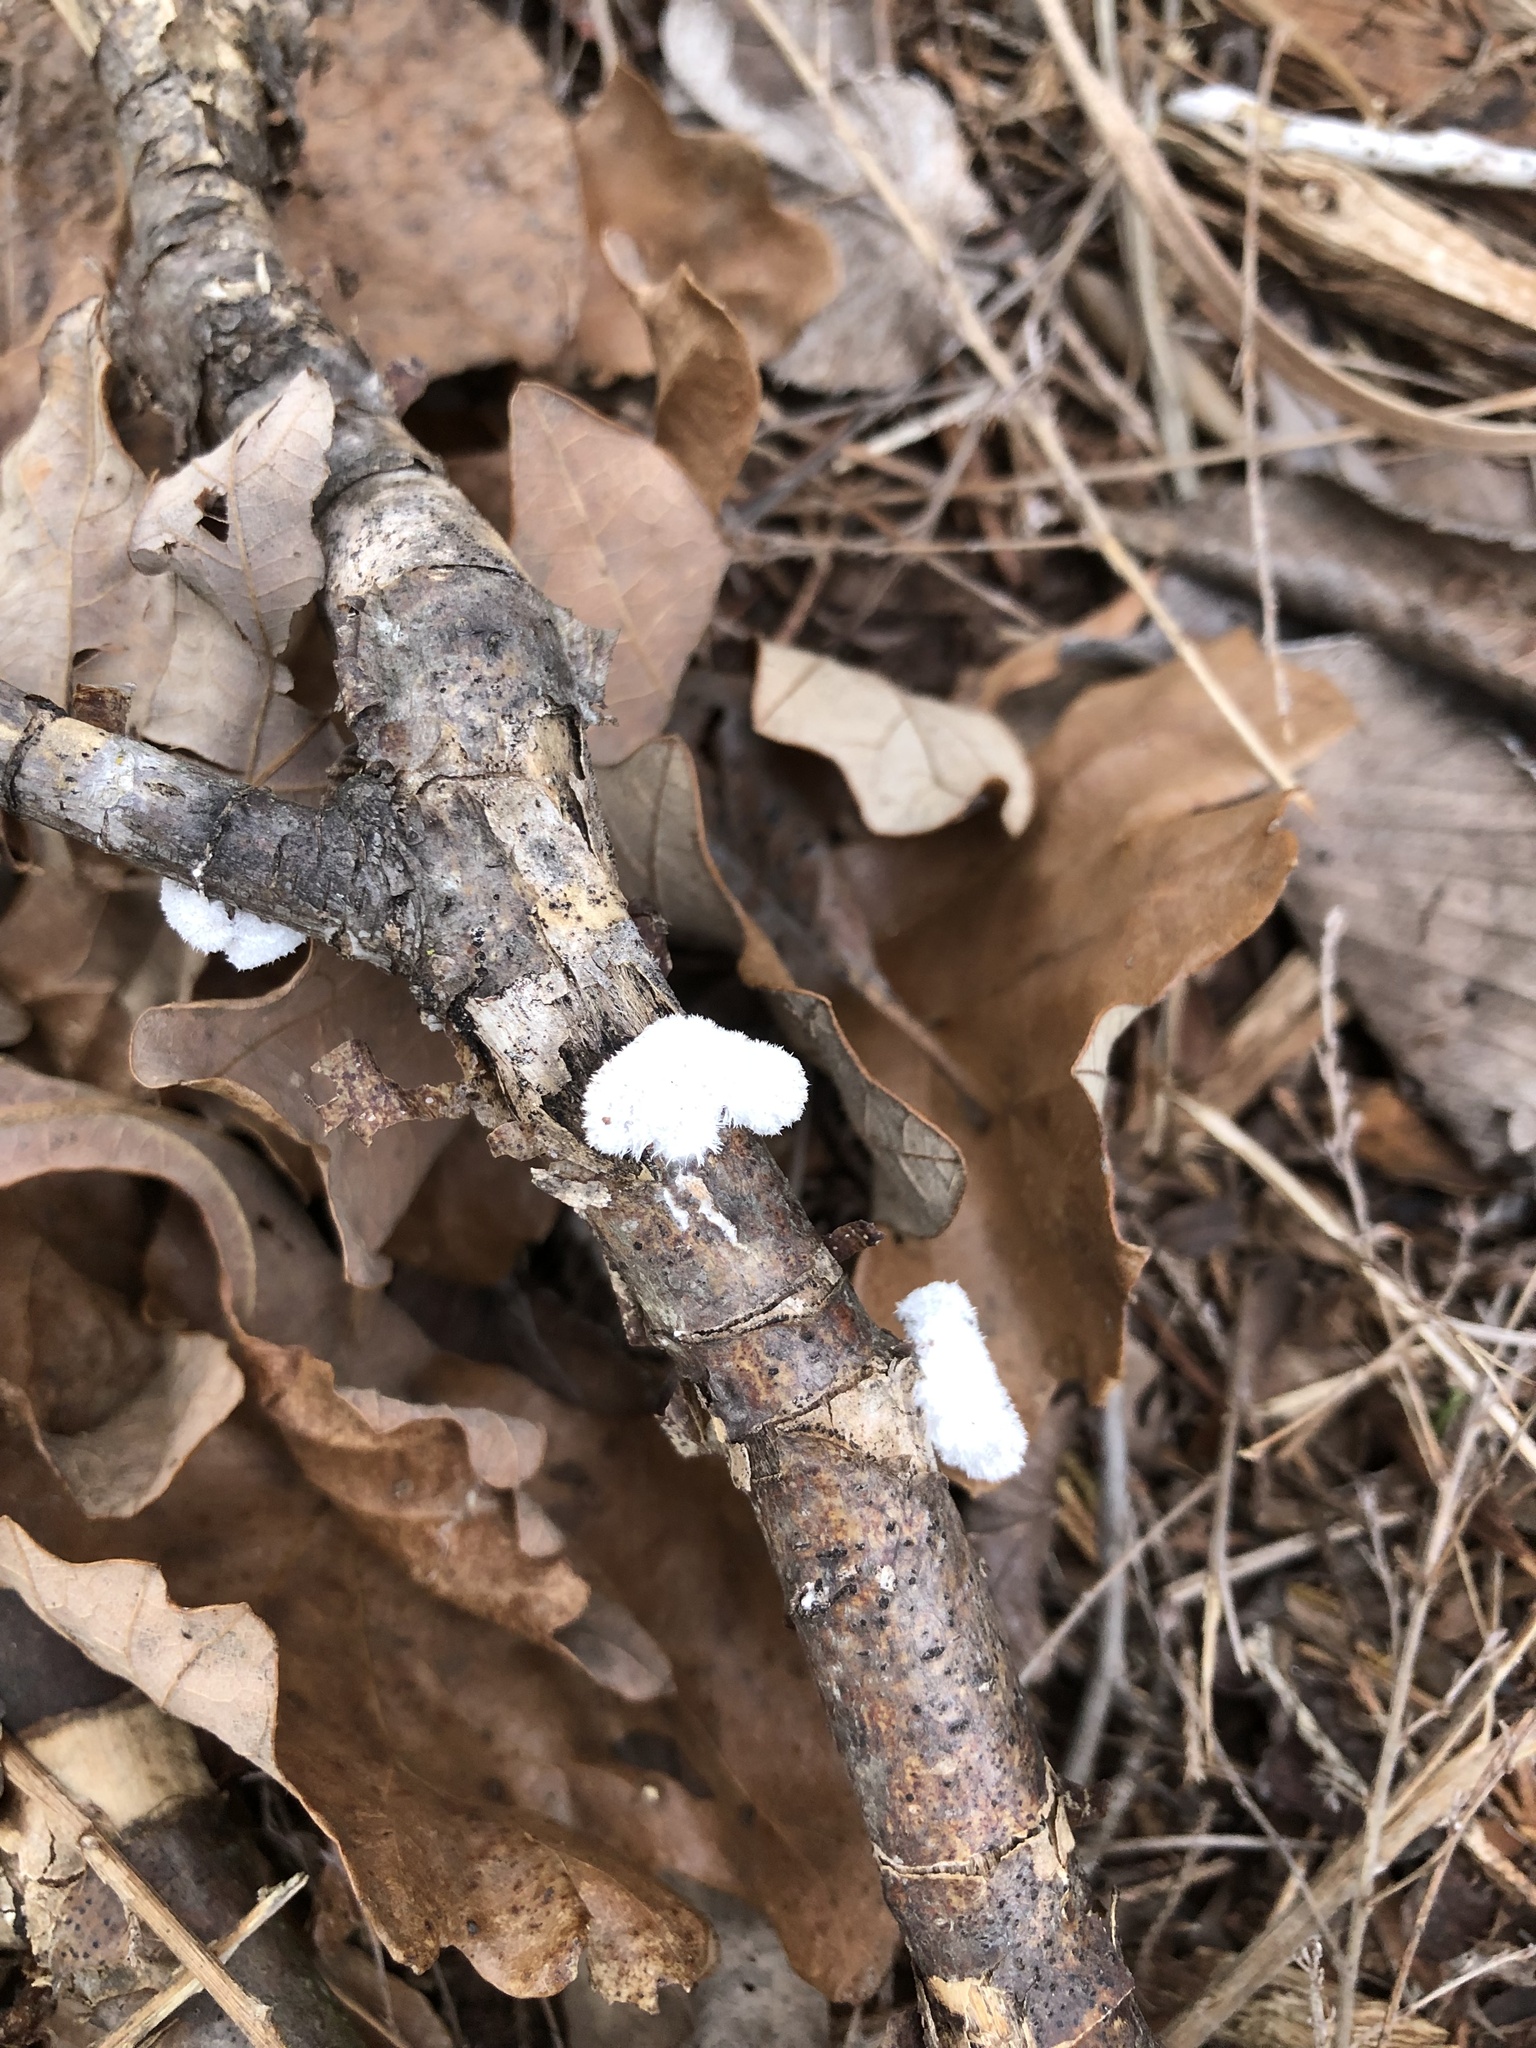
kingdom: Fungi
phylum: Basidiomycota
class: Agaricomycetes
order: Agaricales
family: Schizophyllaceae
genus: Schizophyllum
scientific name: Schizophyllum commune
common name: Common porecrust
